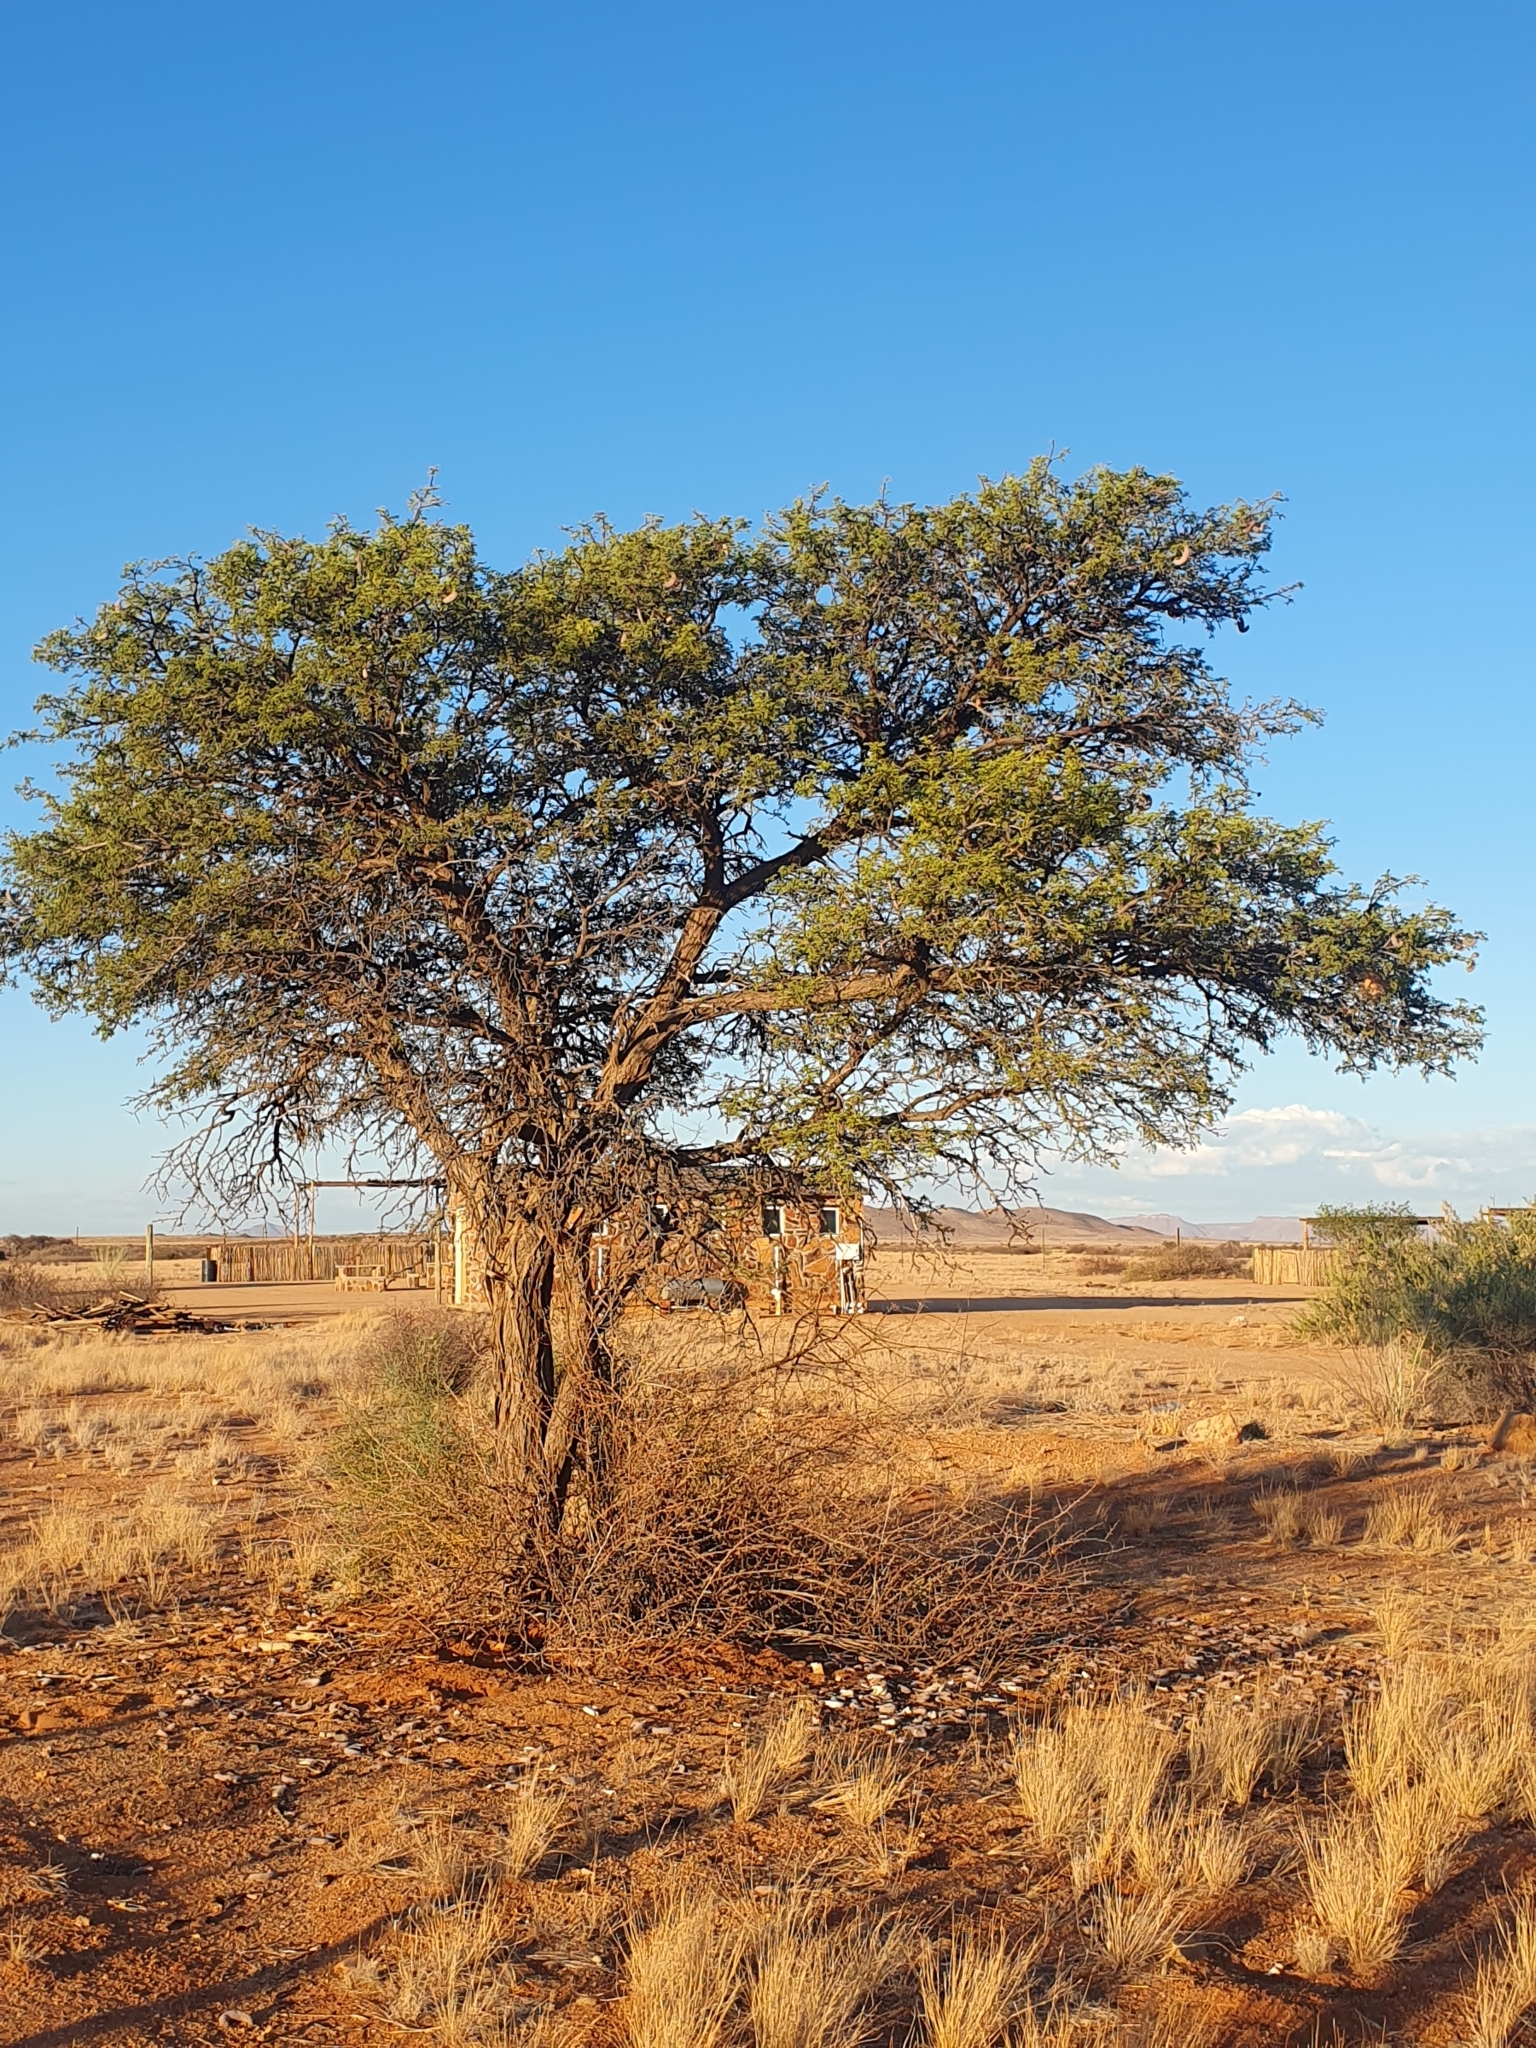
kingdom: Plantae
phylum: Tracheophyta
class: Magnoliopsida
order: Fabales
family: Fabaceae
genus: Vachellia
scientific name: Vachellia erioloba
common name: Camel thorn
